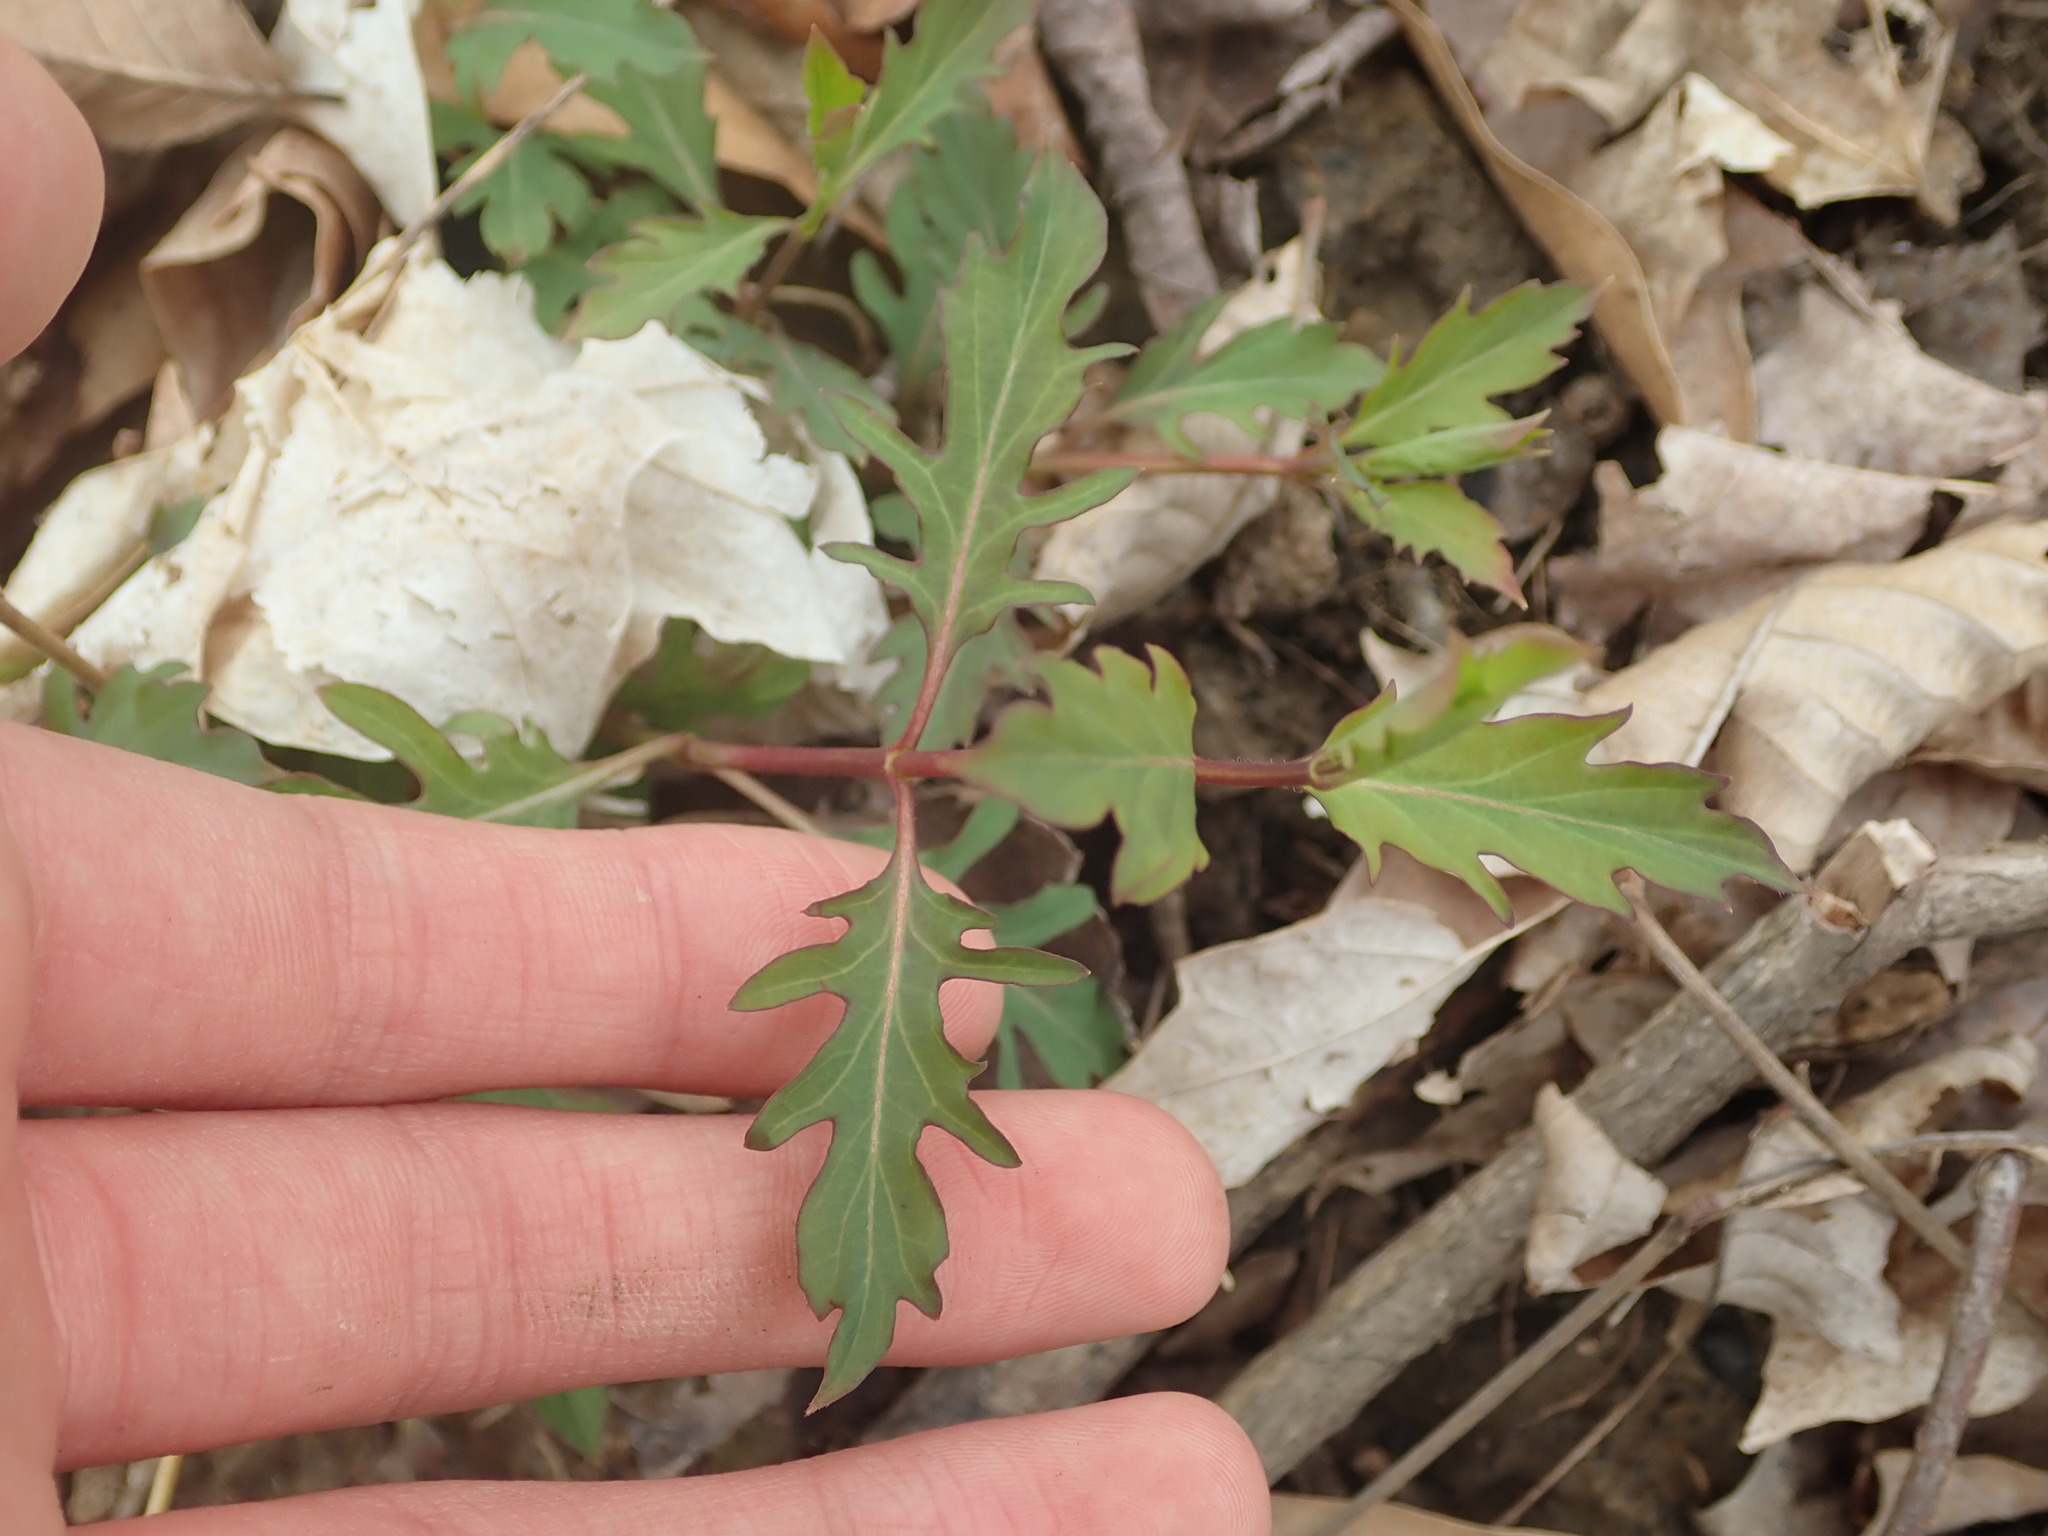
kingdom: Plantae
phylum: Tracheophyta
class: Magnoliopsida
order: Dipsacales
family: Caprifoliaceae
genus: Lonicera
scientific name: Lonicera japonica
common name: Japanese honeysuckle
